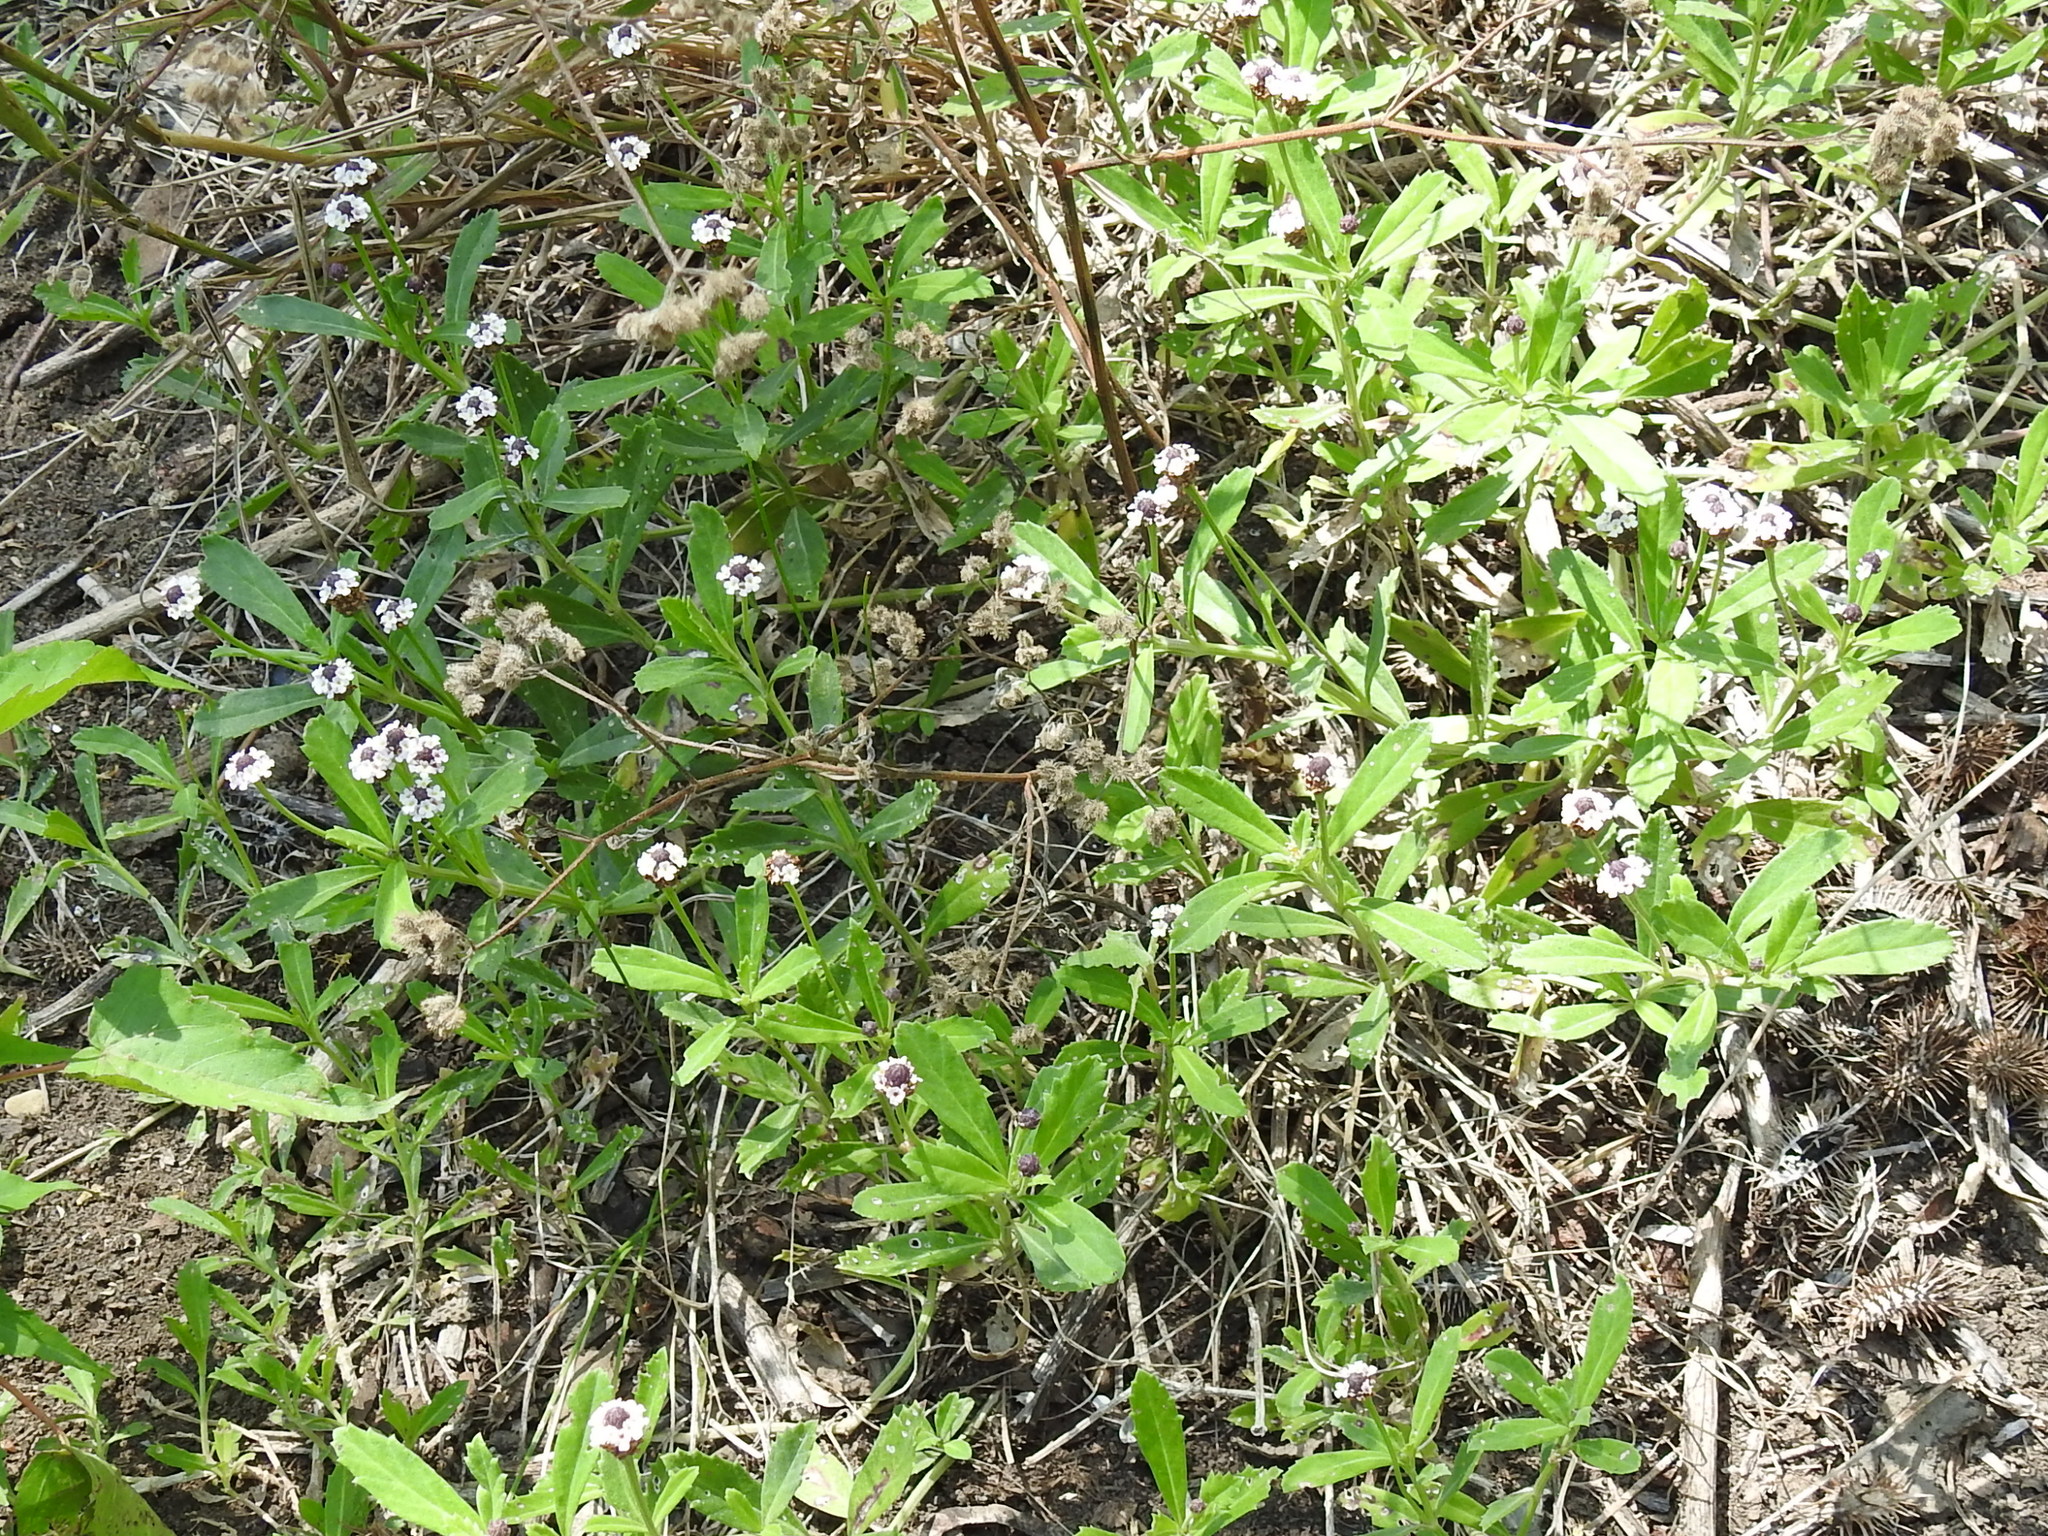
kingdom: Plantae
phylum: Tracheophyta
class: Magnoliopsida
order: Lamiales
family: Verbenaceae
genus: Phyla
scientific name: Phyla nodiflora
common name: Frogfruit
